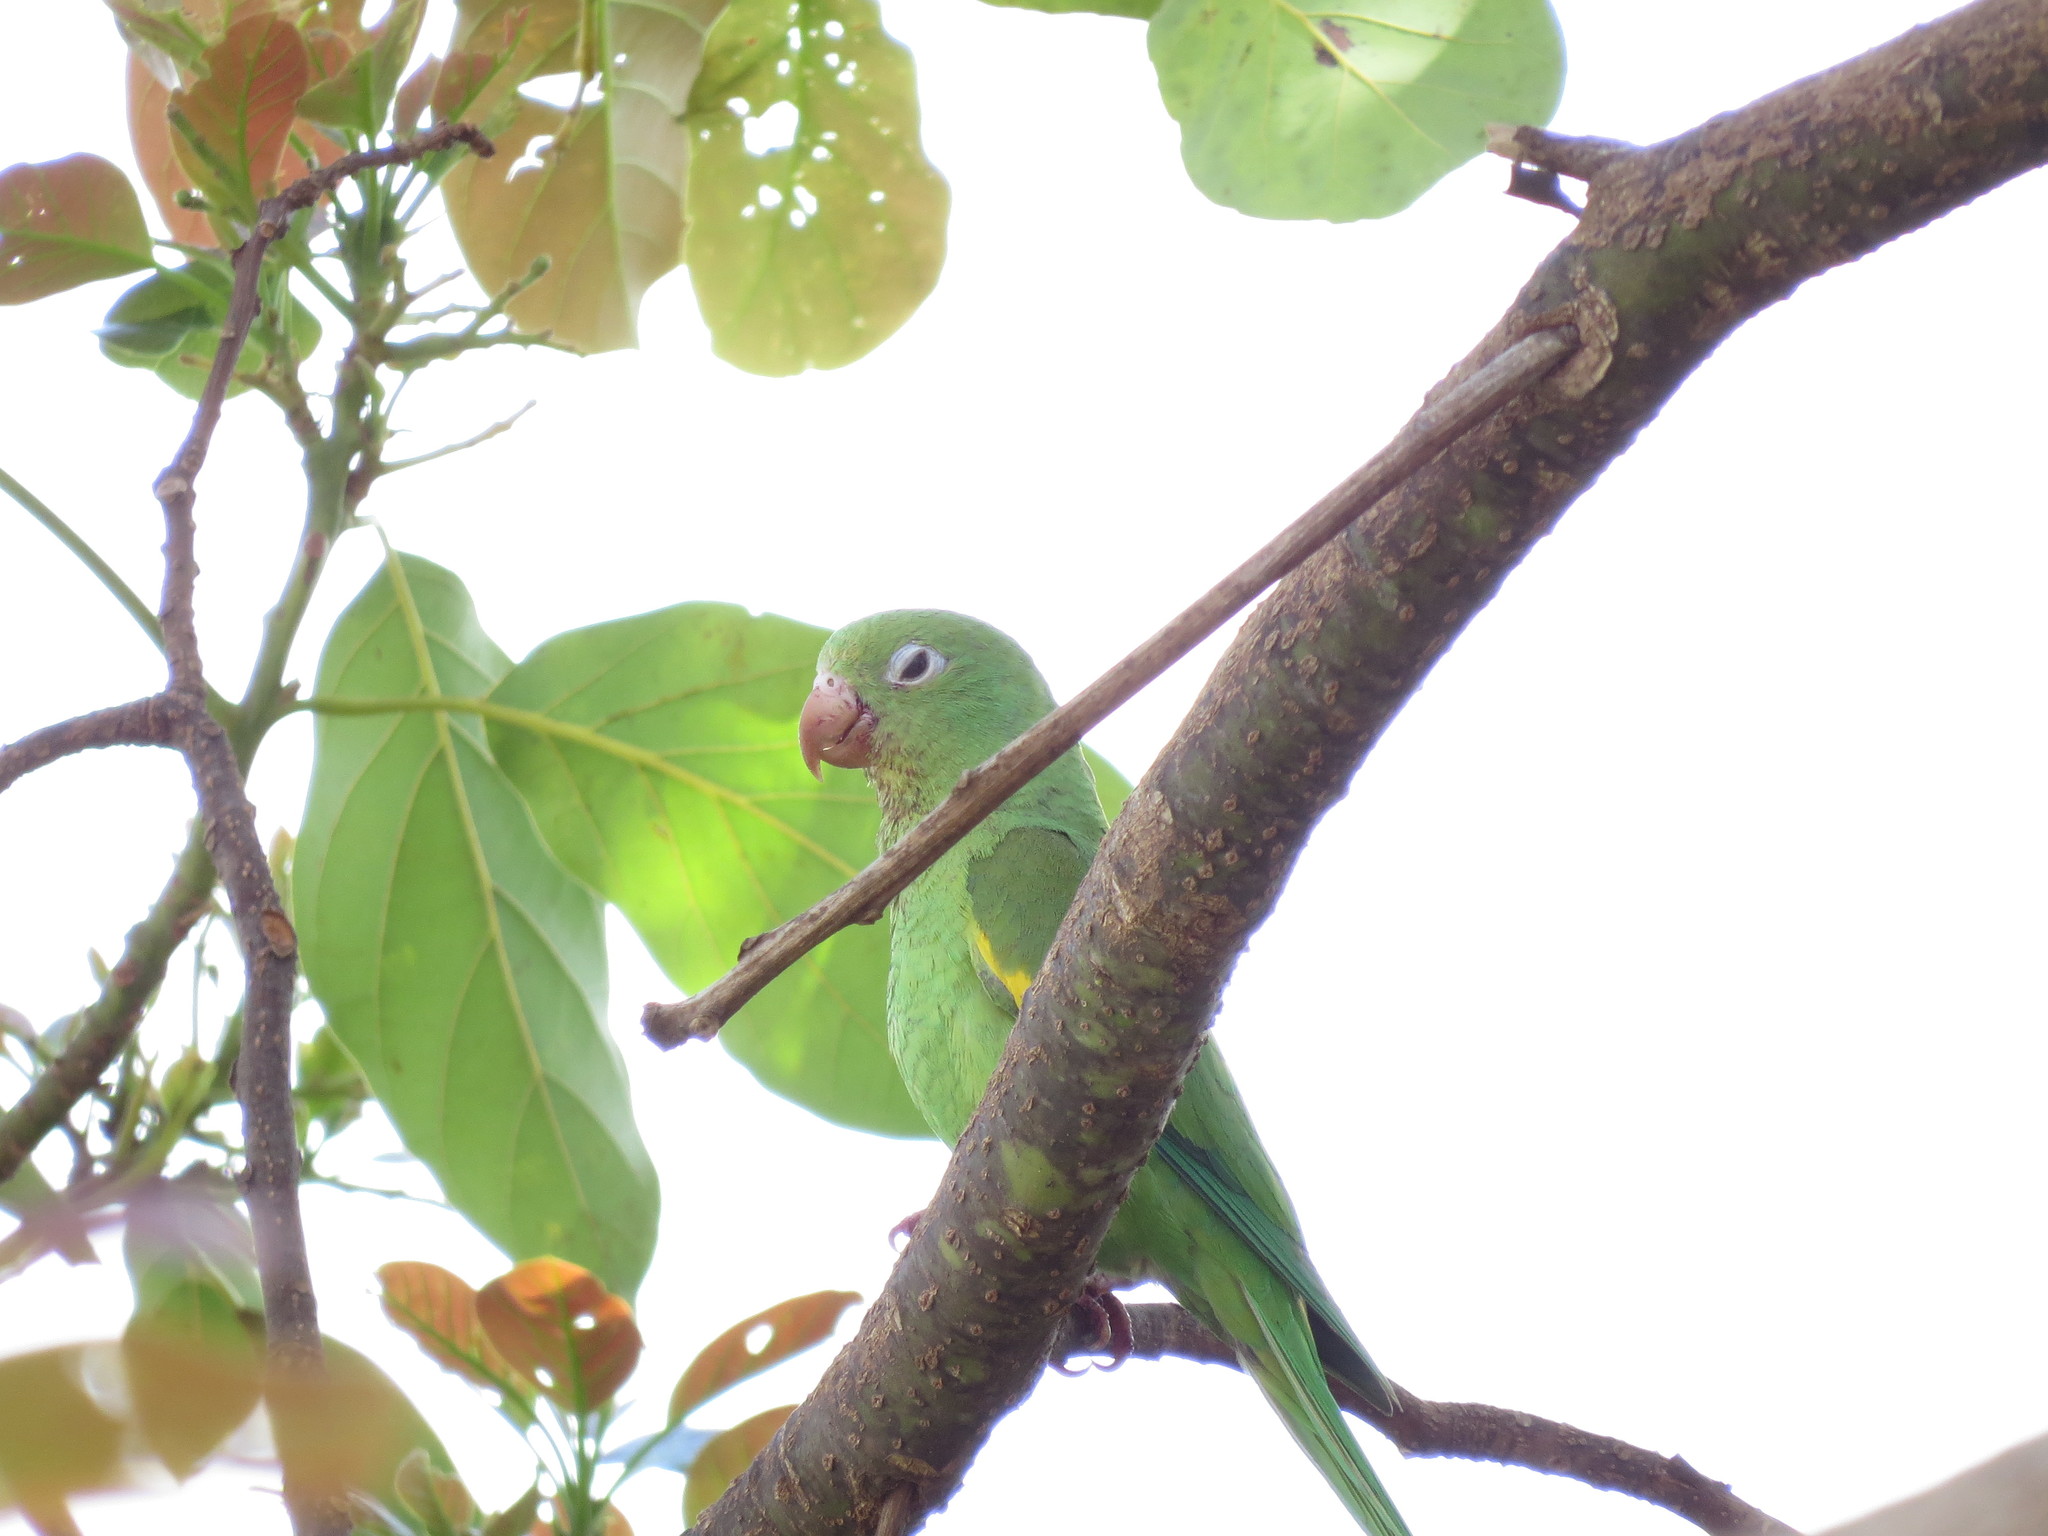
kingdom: Animalia
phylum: Chordata
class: Aves
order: Psittaciformes
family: Psittacidae
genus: Brotogeris
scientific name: Brotogeris chiriri
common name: Yellow-chevroned parakeet
